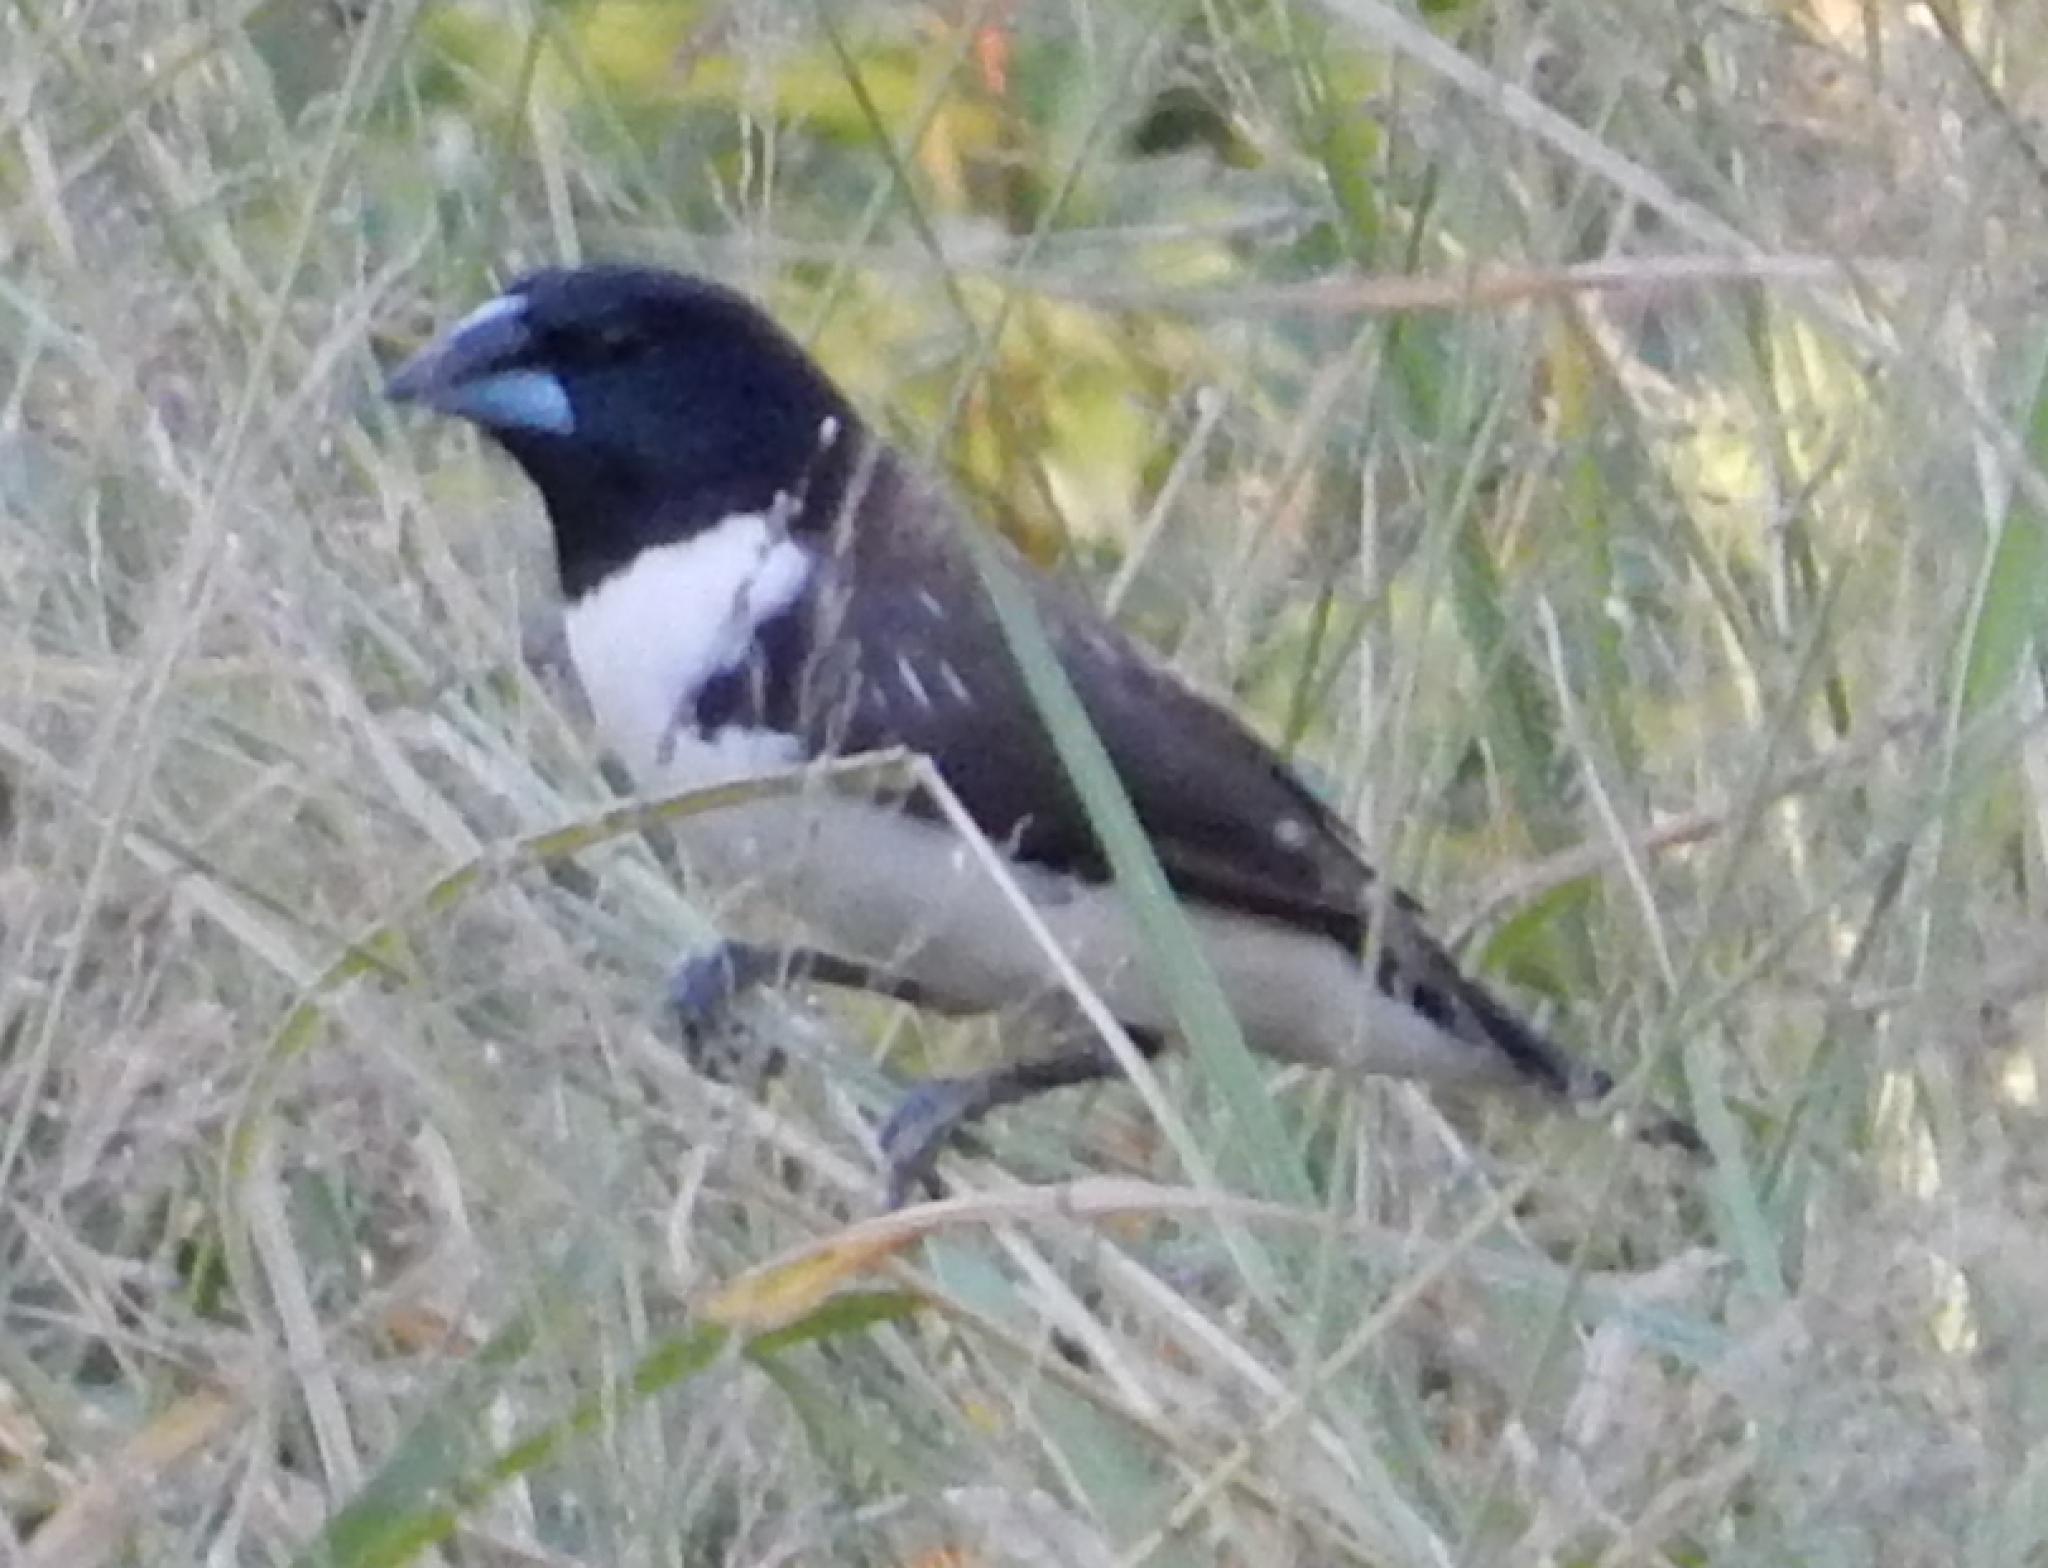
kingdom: Animalia
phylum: Chordata
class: Aves
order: Passeriformes
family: Estrildidae
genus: Lonchura
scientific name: Lonchura fringilloides
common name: Magpie mannikin
